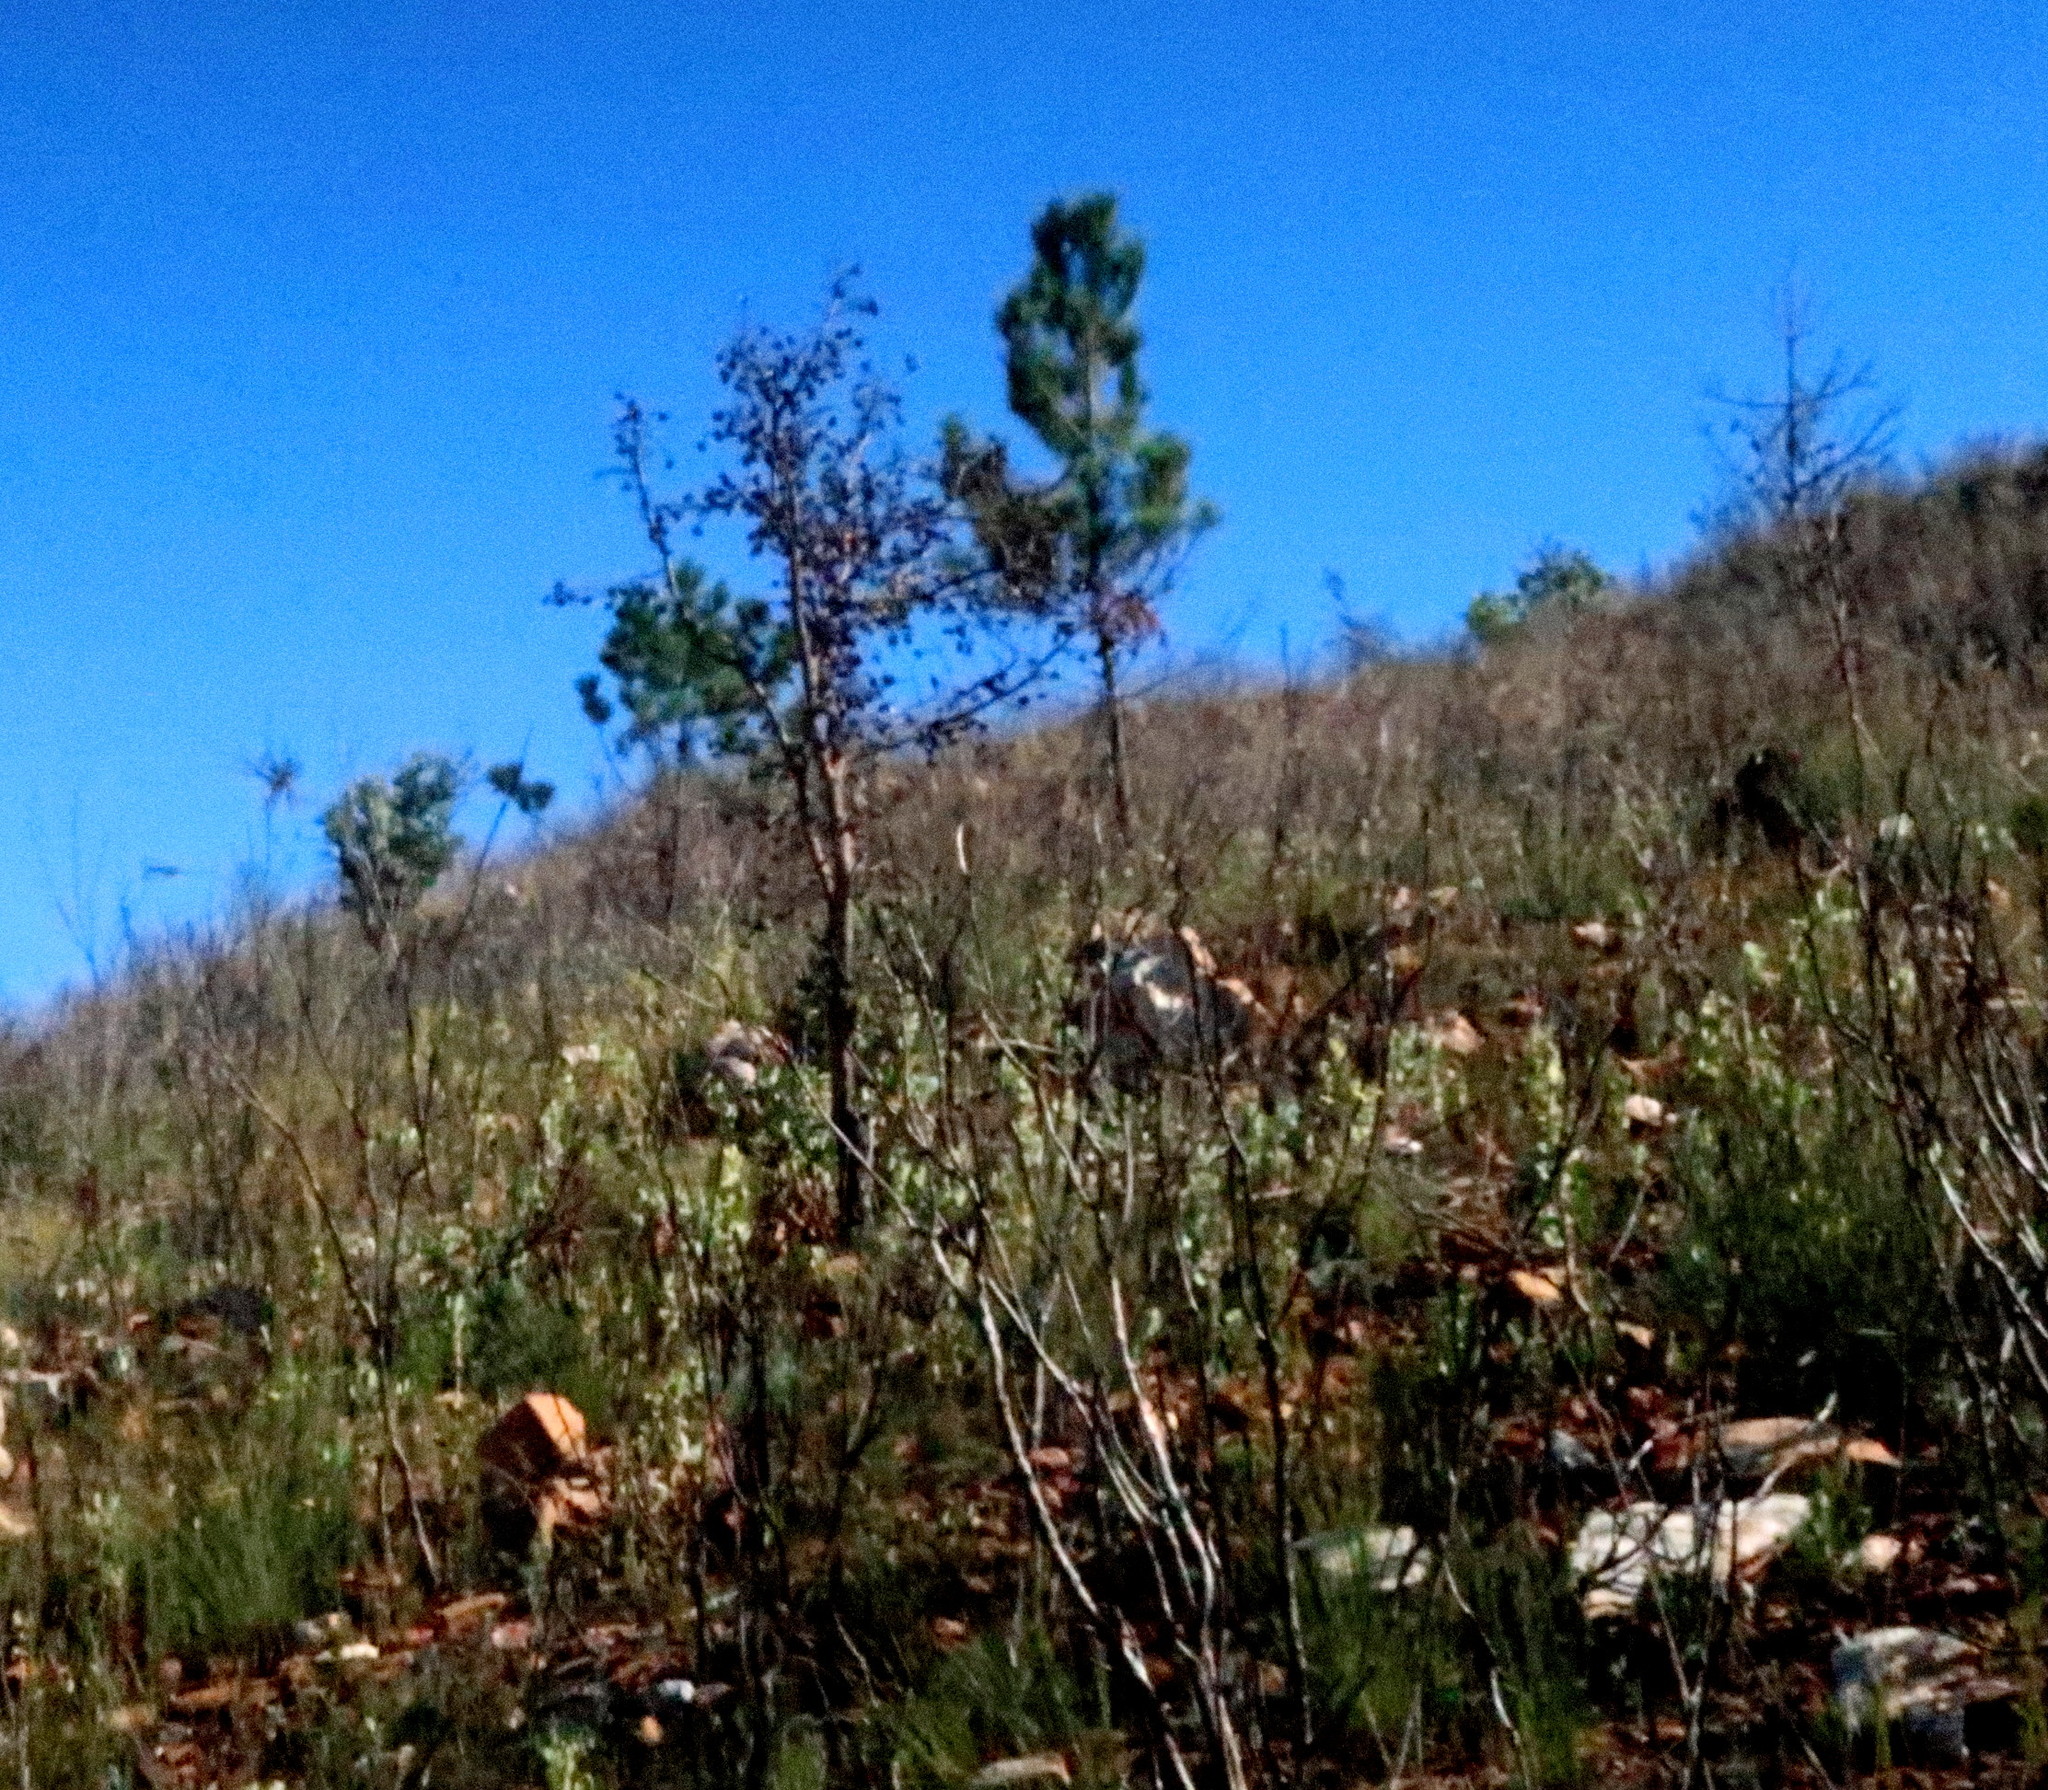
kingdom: Plantae
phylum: Tracheophyta
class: Magnoliopsida
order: Proteales
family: Proteaceae
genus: Hakea
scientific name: Hakea sericea
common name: Needle bush
